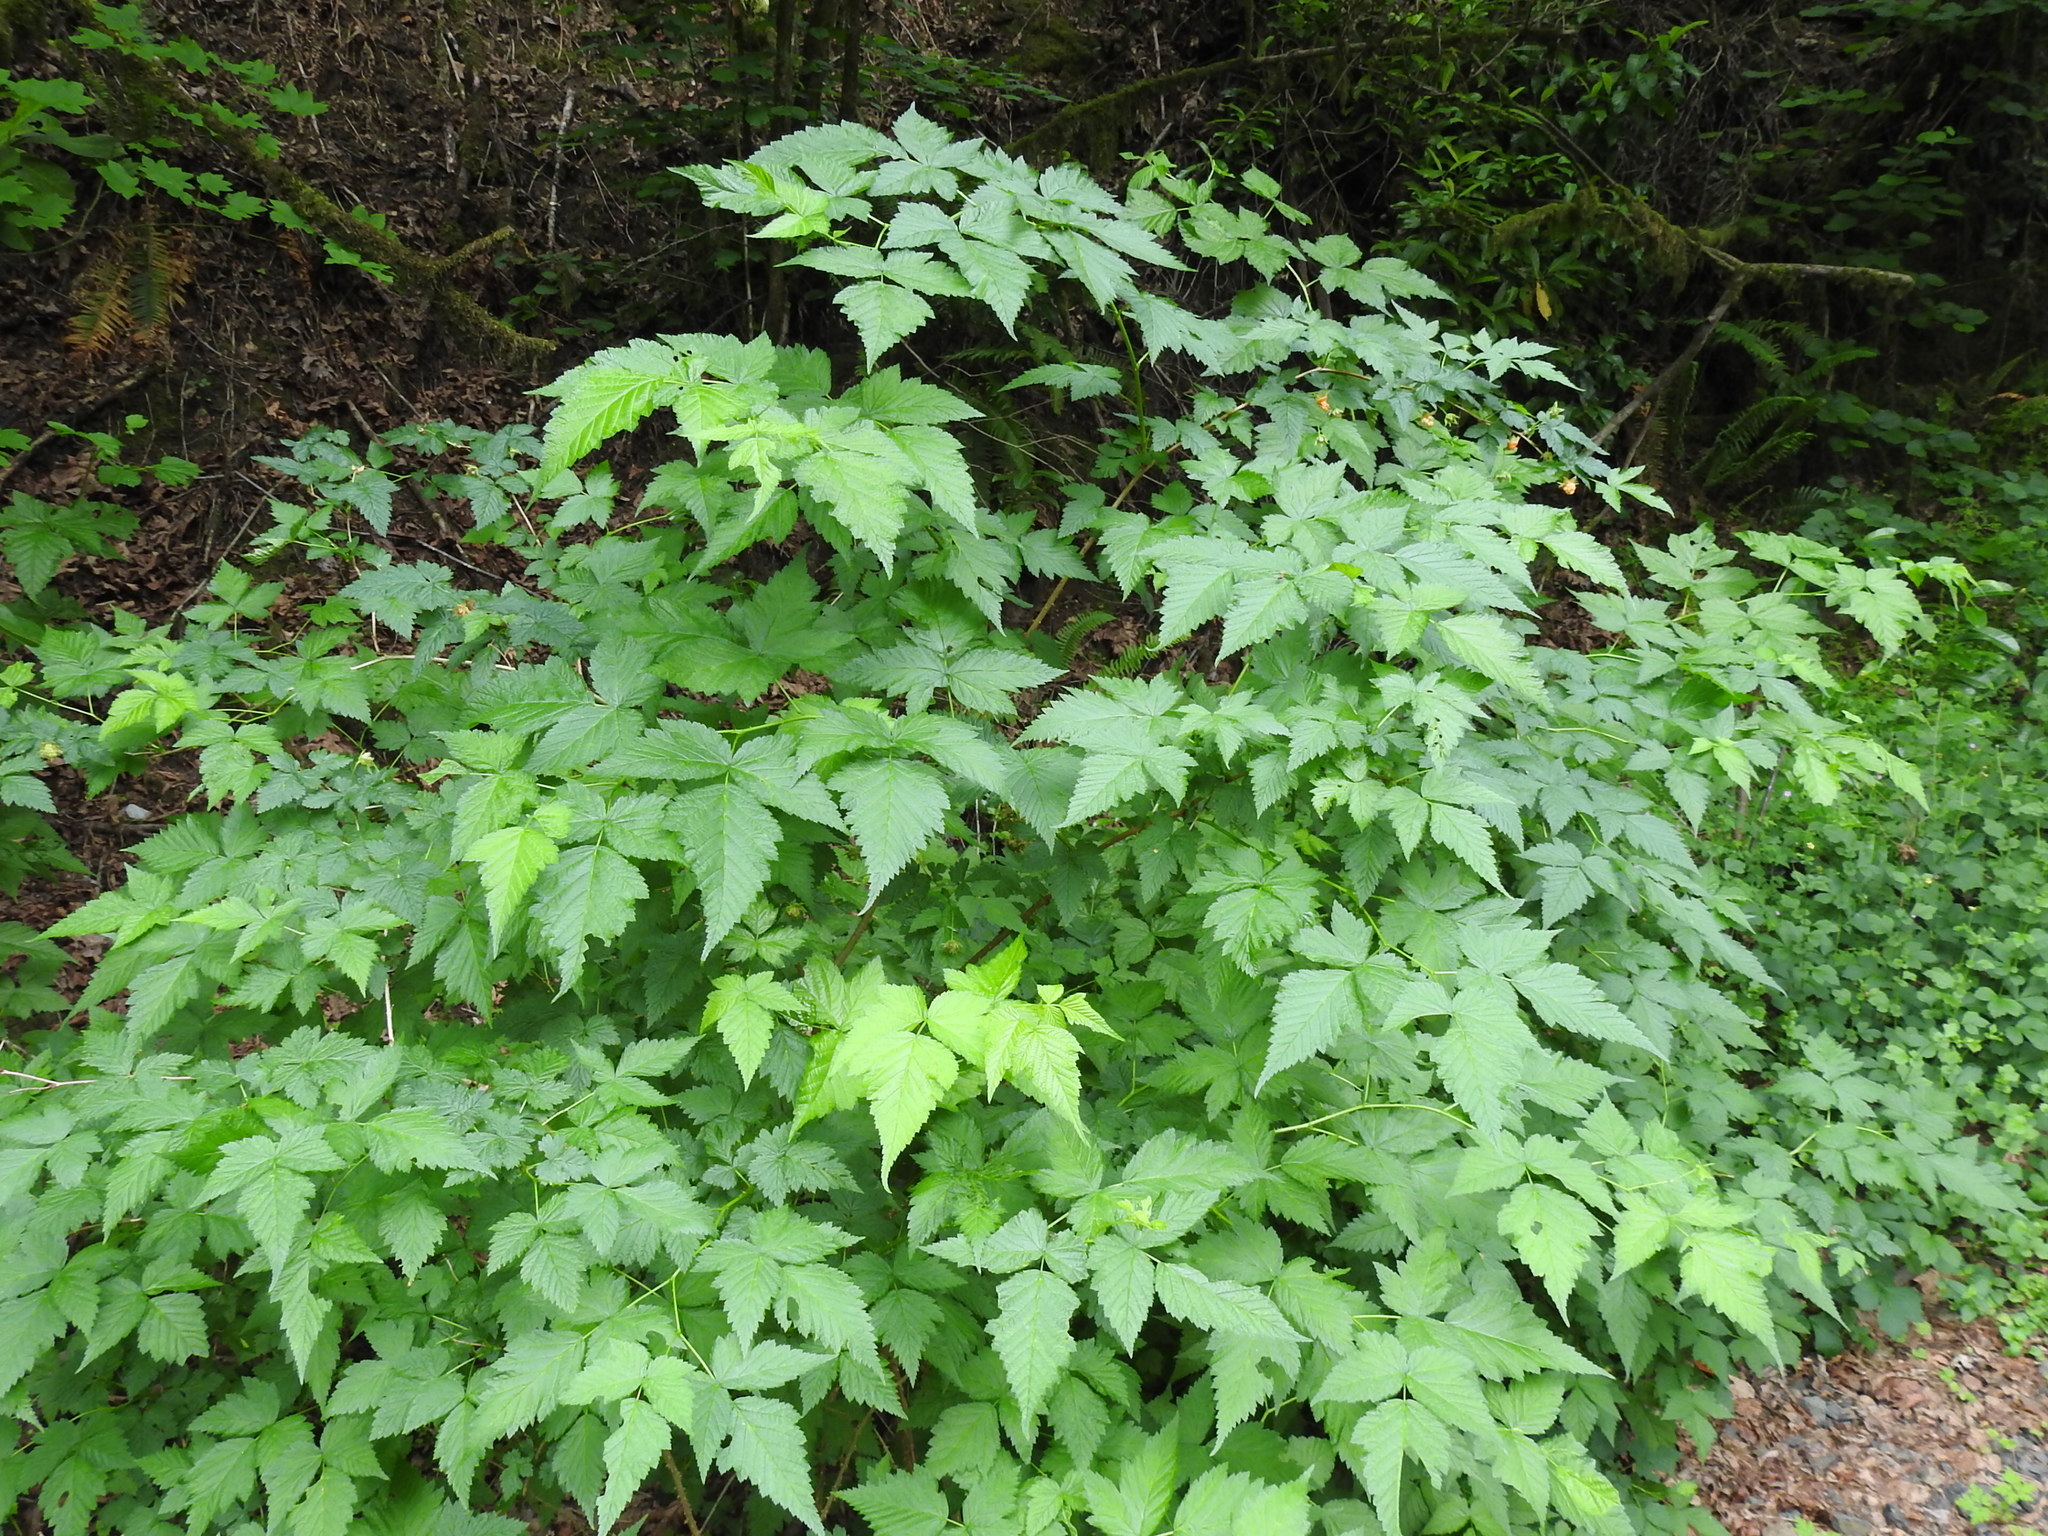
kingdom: Plantae
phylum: Tracheophyta
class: Magnoliopsida
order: Rosales
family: Rosaceae
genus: Rubus
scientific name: Rubus spectabilis
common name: Salmonberry
